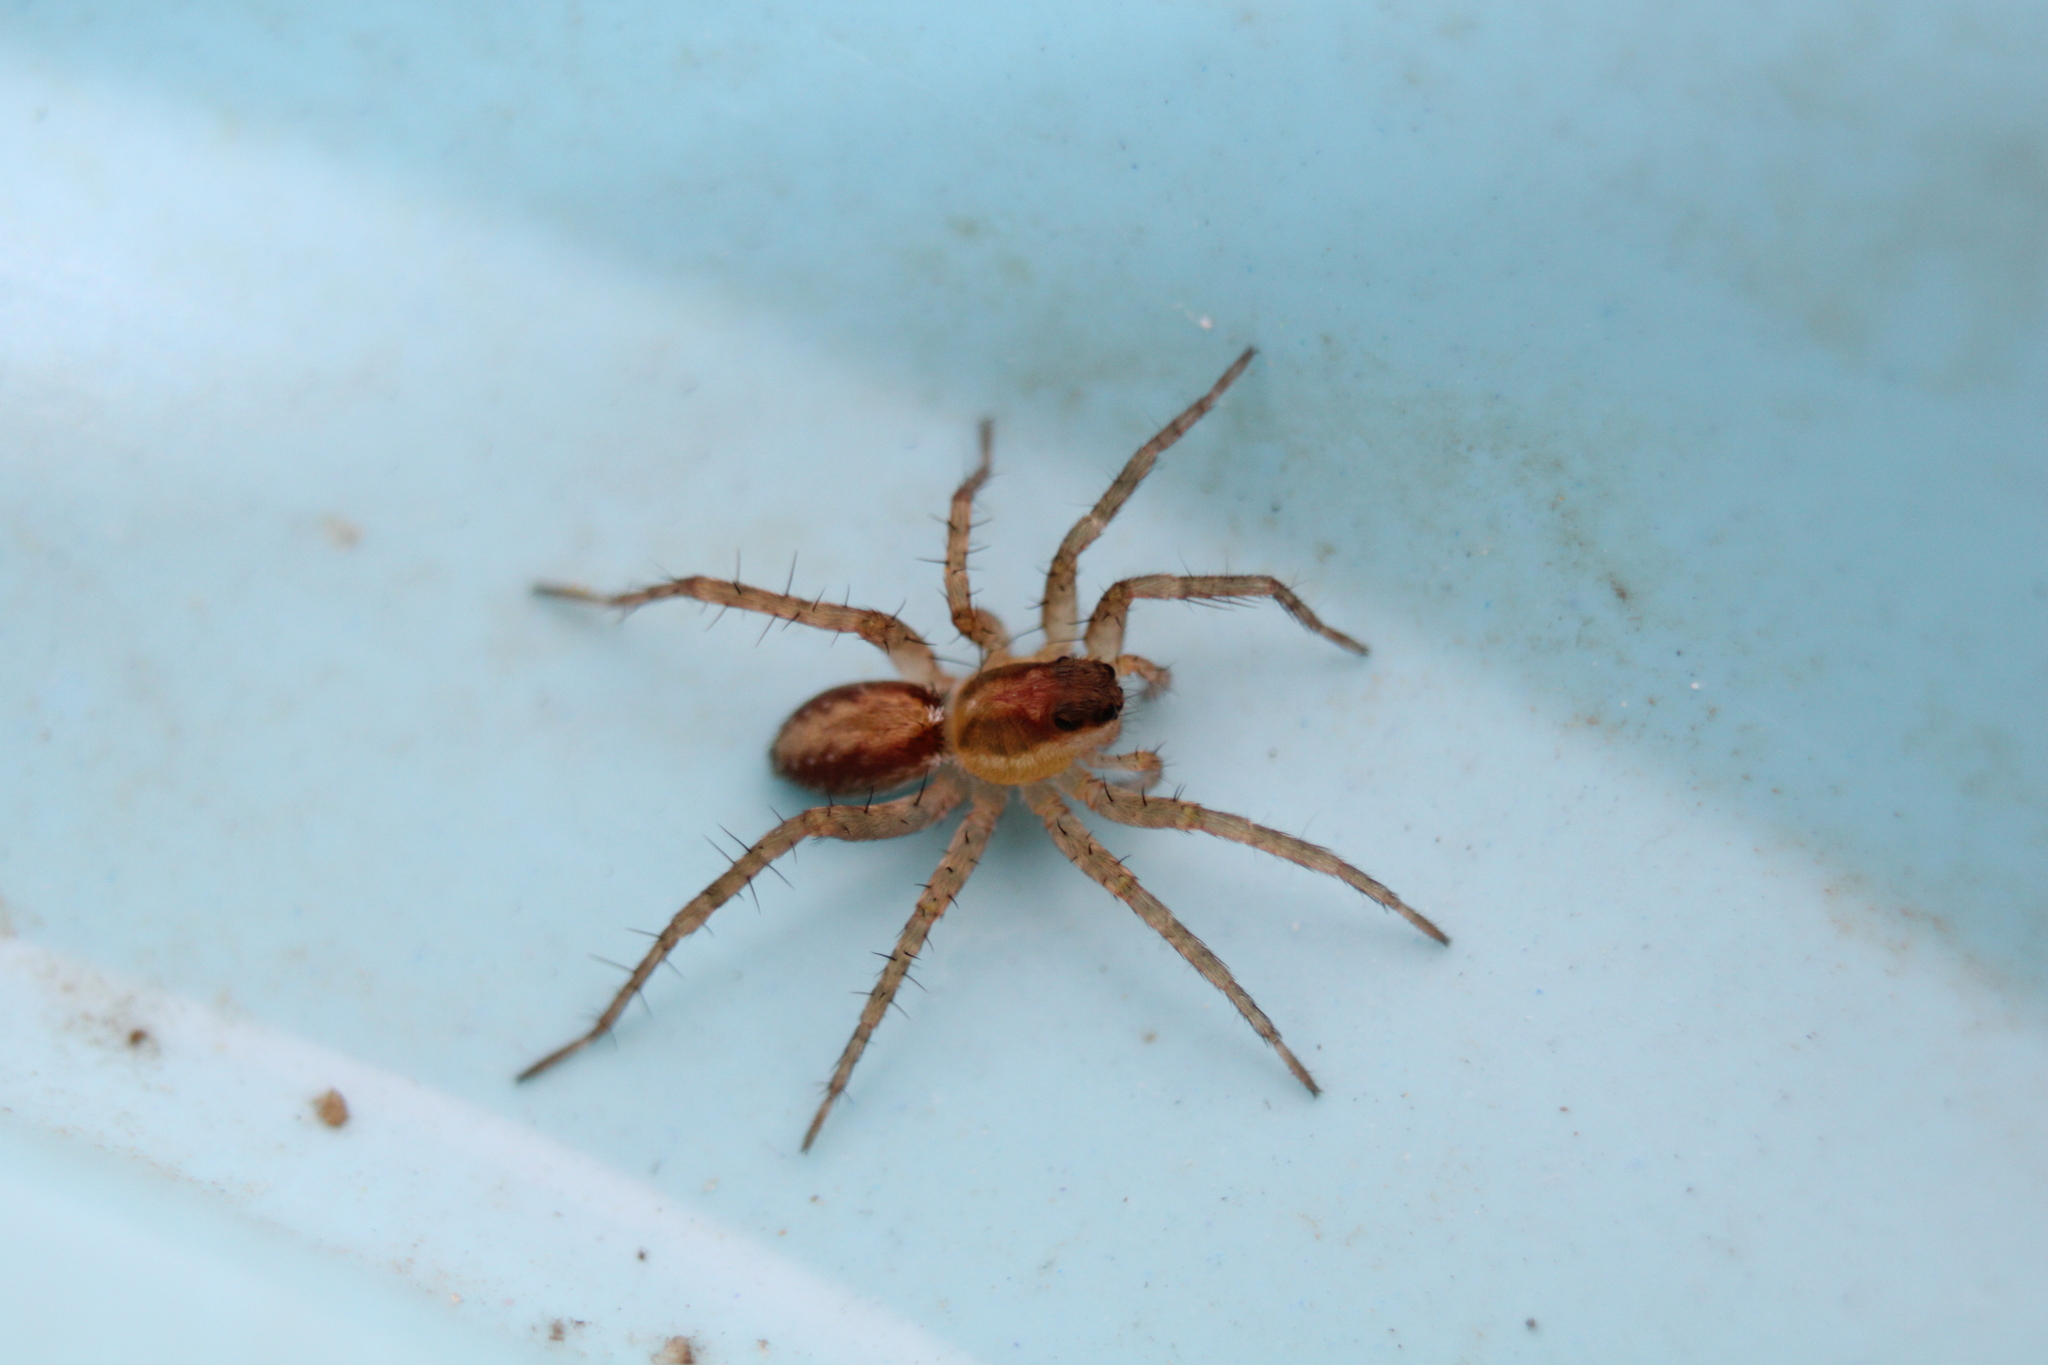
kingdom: Animalia
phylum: Arthropoda
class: Arachnida
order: Araneae
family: Lycosidae
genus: Pardosa
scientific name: Pardosa pauxilla
